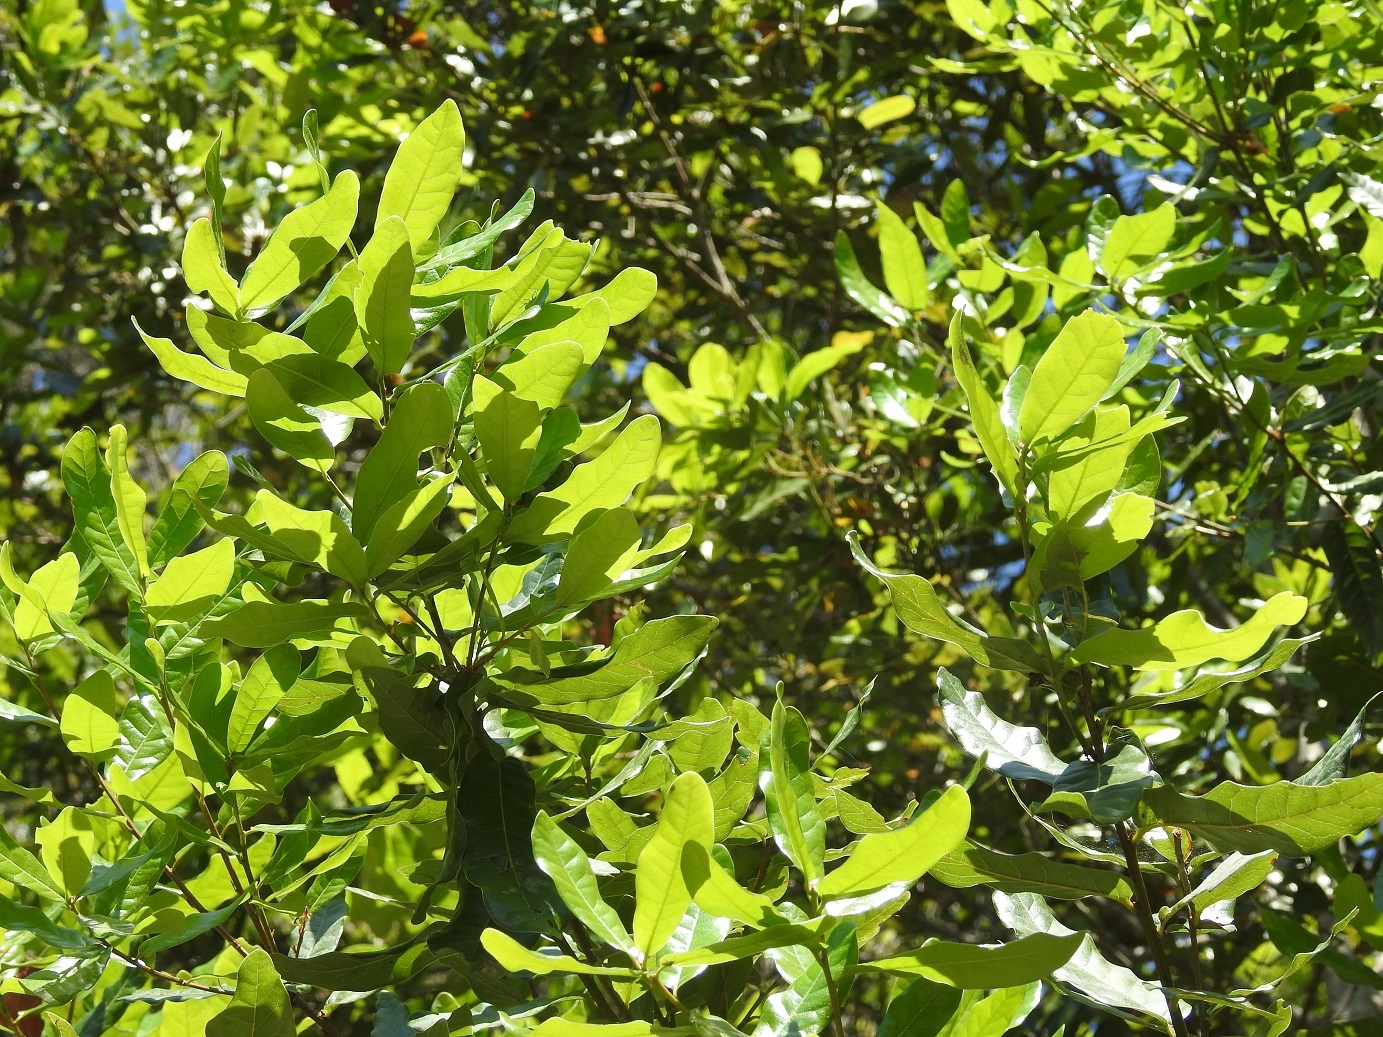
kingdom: Plantae
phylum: Tracheophyta
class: Magnoliopsida
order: Fagales
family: Fagaceae
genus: Quercus
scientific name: Quercus sapotifolia
